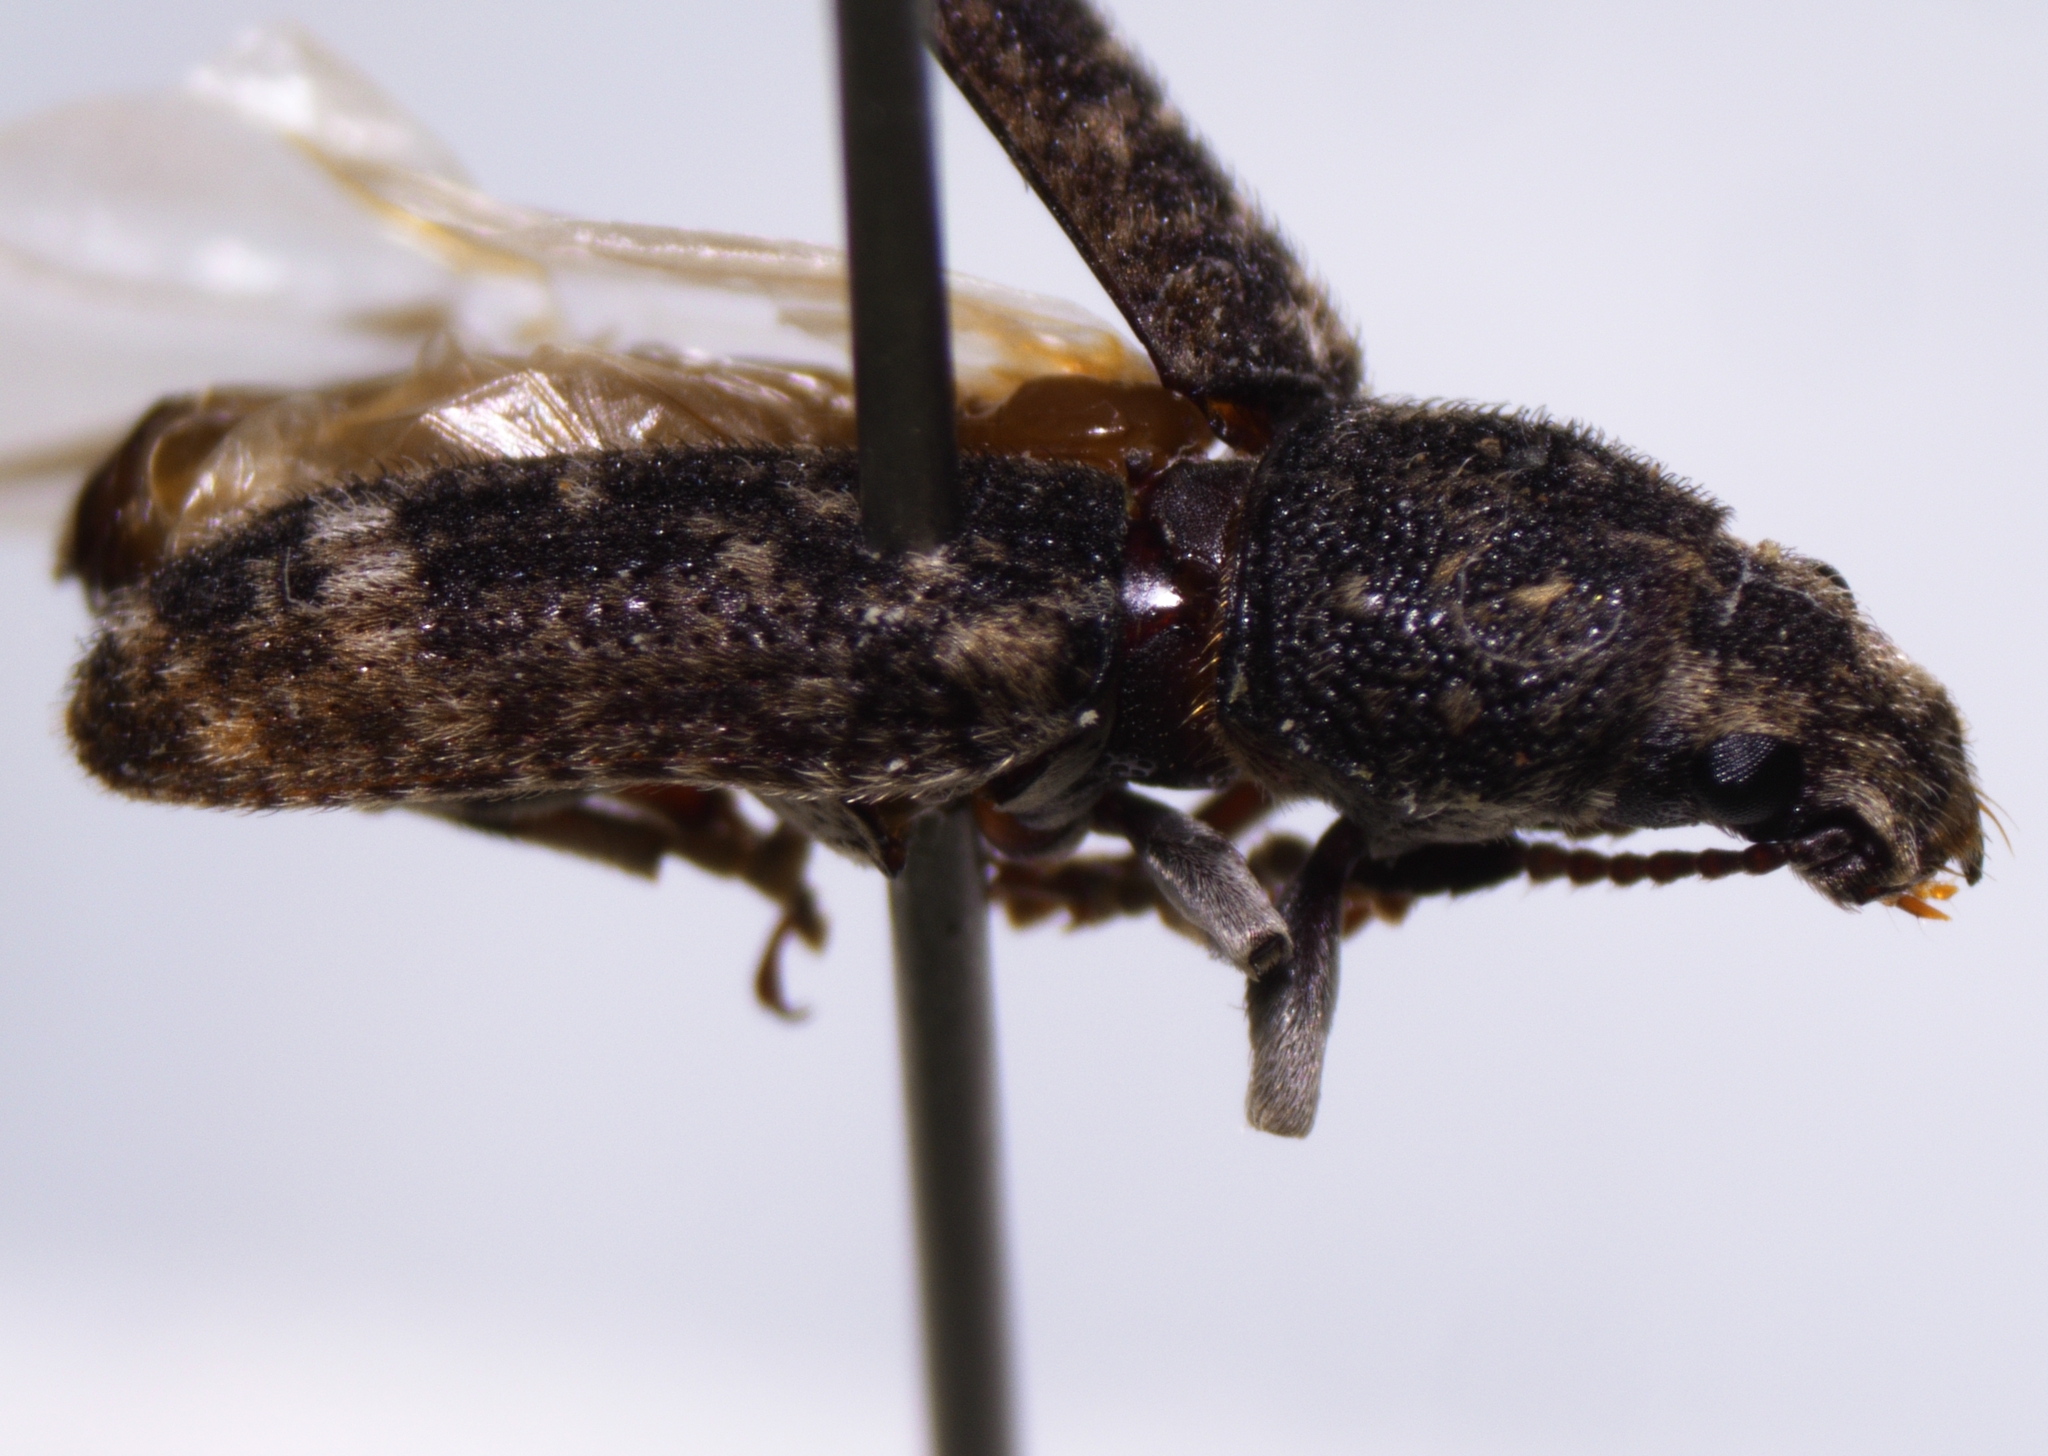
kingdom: Animalia
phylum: Arthropoda
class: Insecta
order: Coleoptera
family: Anthribidae
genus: Eucorynus
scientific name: Eucorynus crassicornis
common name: Fungus weevil
